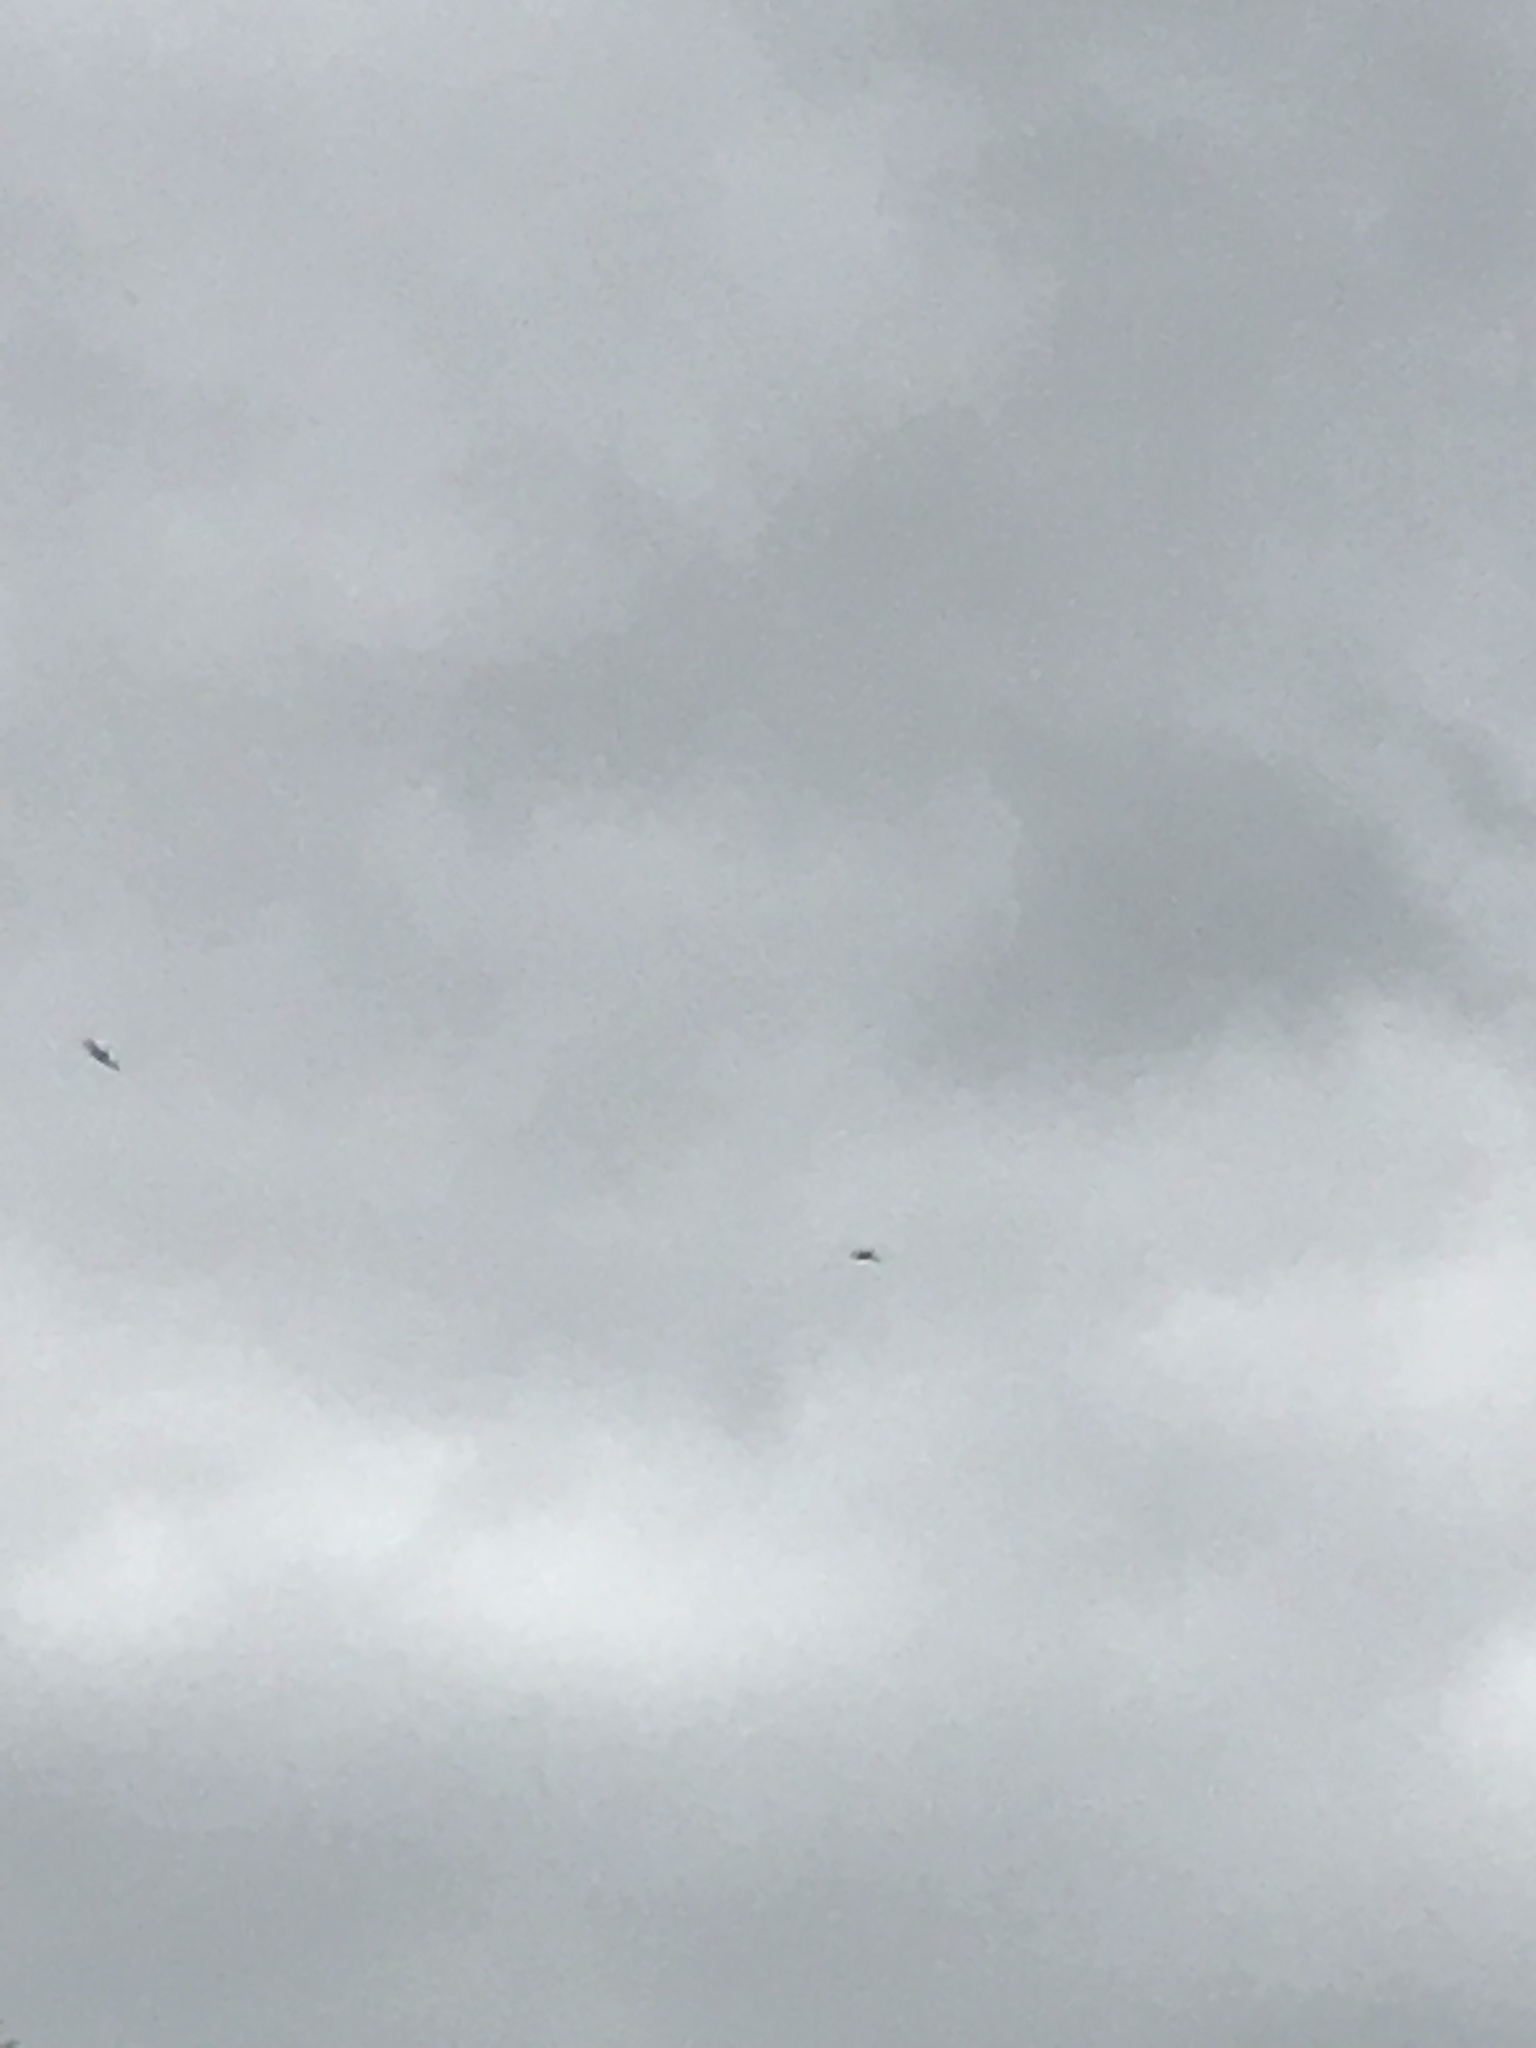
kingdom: Animalia
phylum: Chordata
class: Aves
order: Apodiformes
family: Apodidae
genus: Apus
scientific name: Apus apus
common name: Common swift
